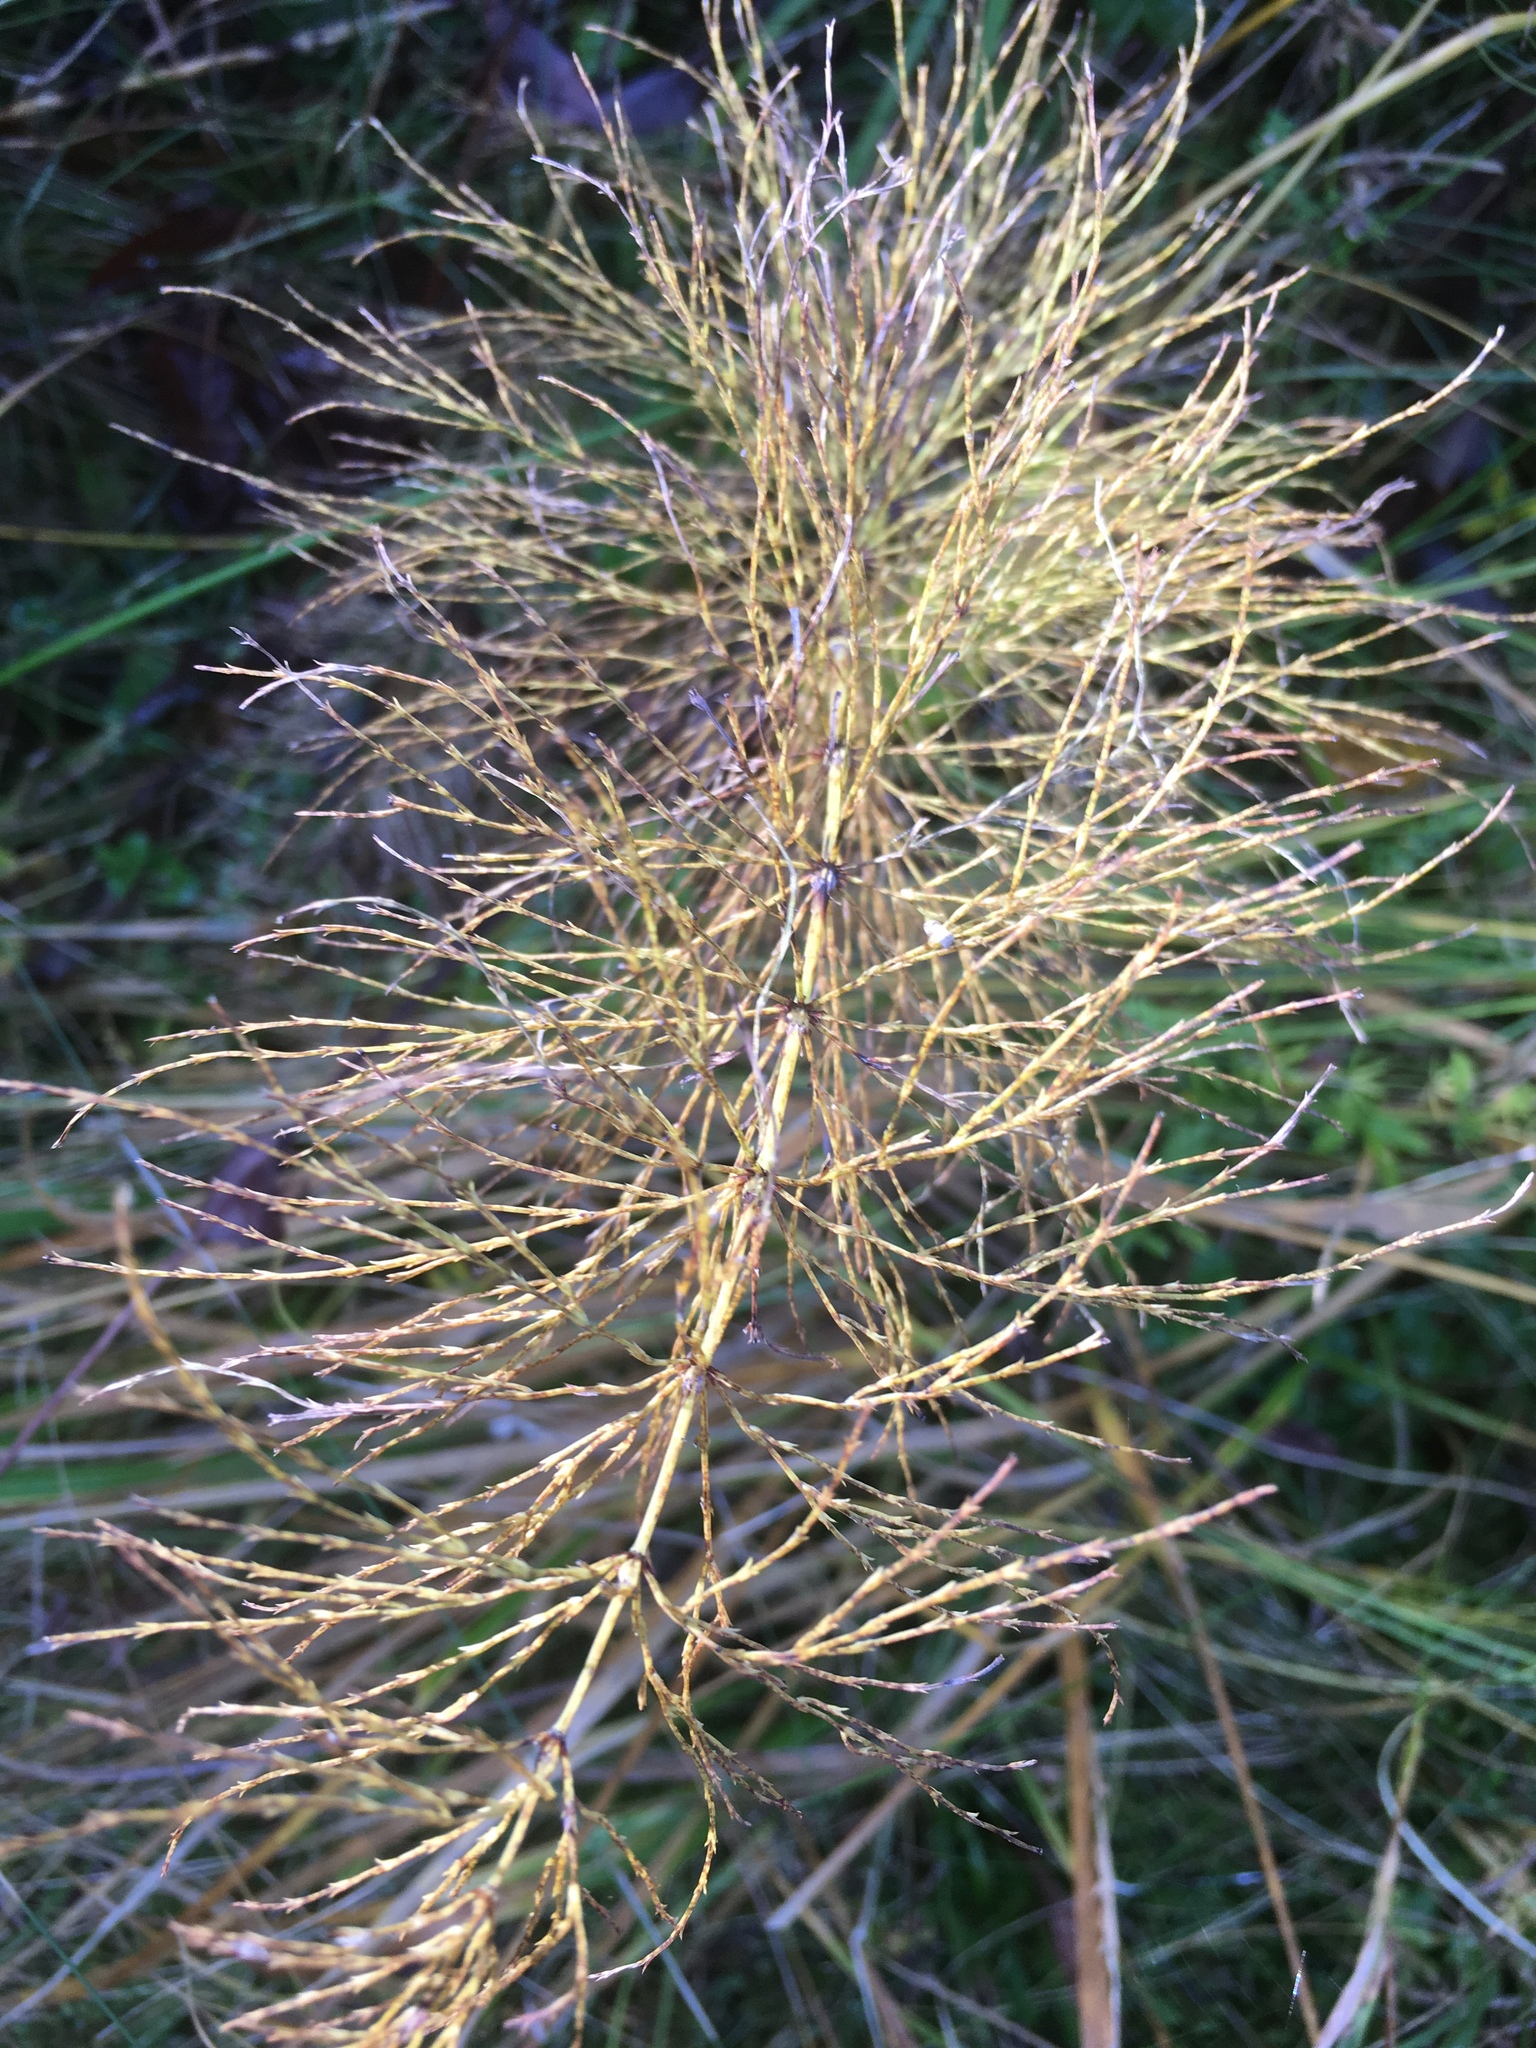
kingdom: Plantae
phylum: Tracheophyta
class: Polypodiopsida
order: Equisetales
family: Equisetaceae
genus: Equisetum
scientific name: Equisetum sylvaticum
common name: Wood horsetail
